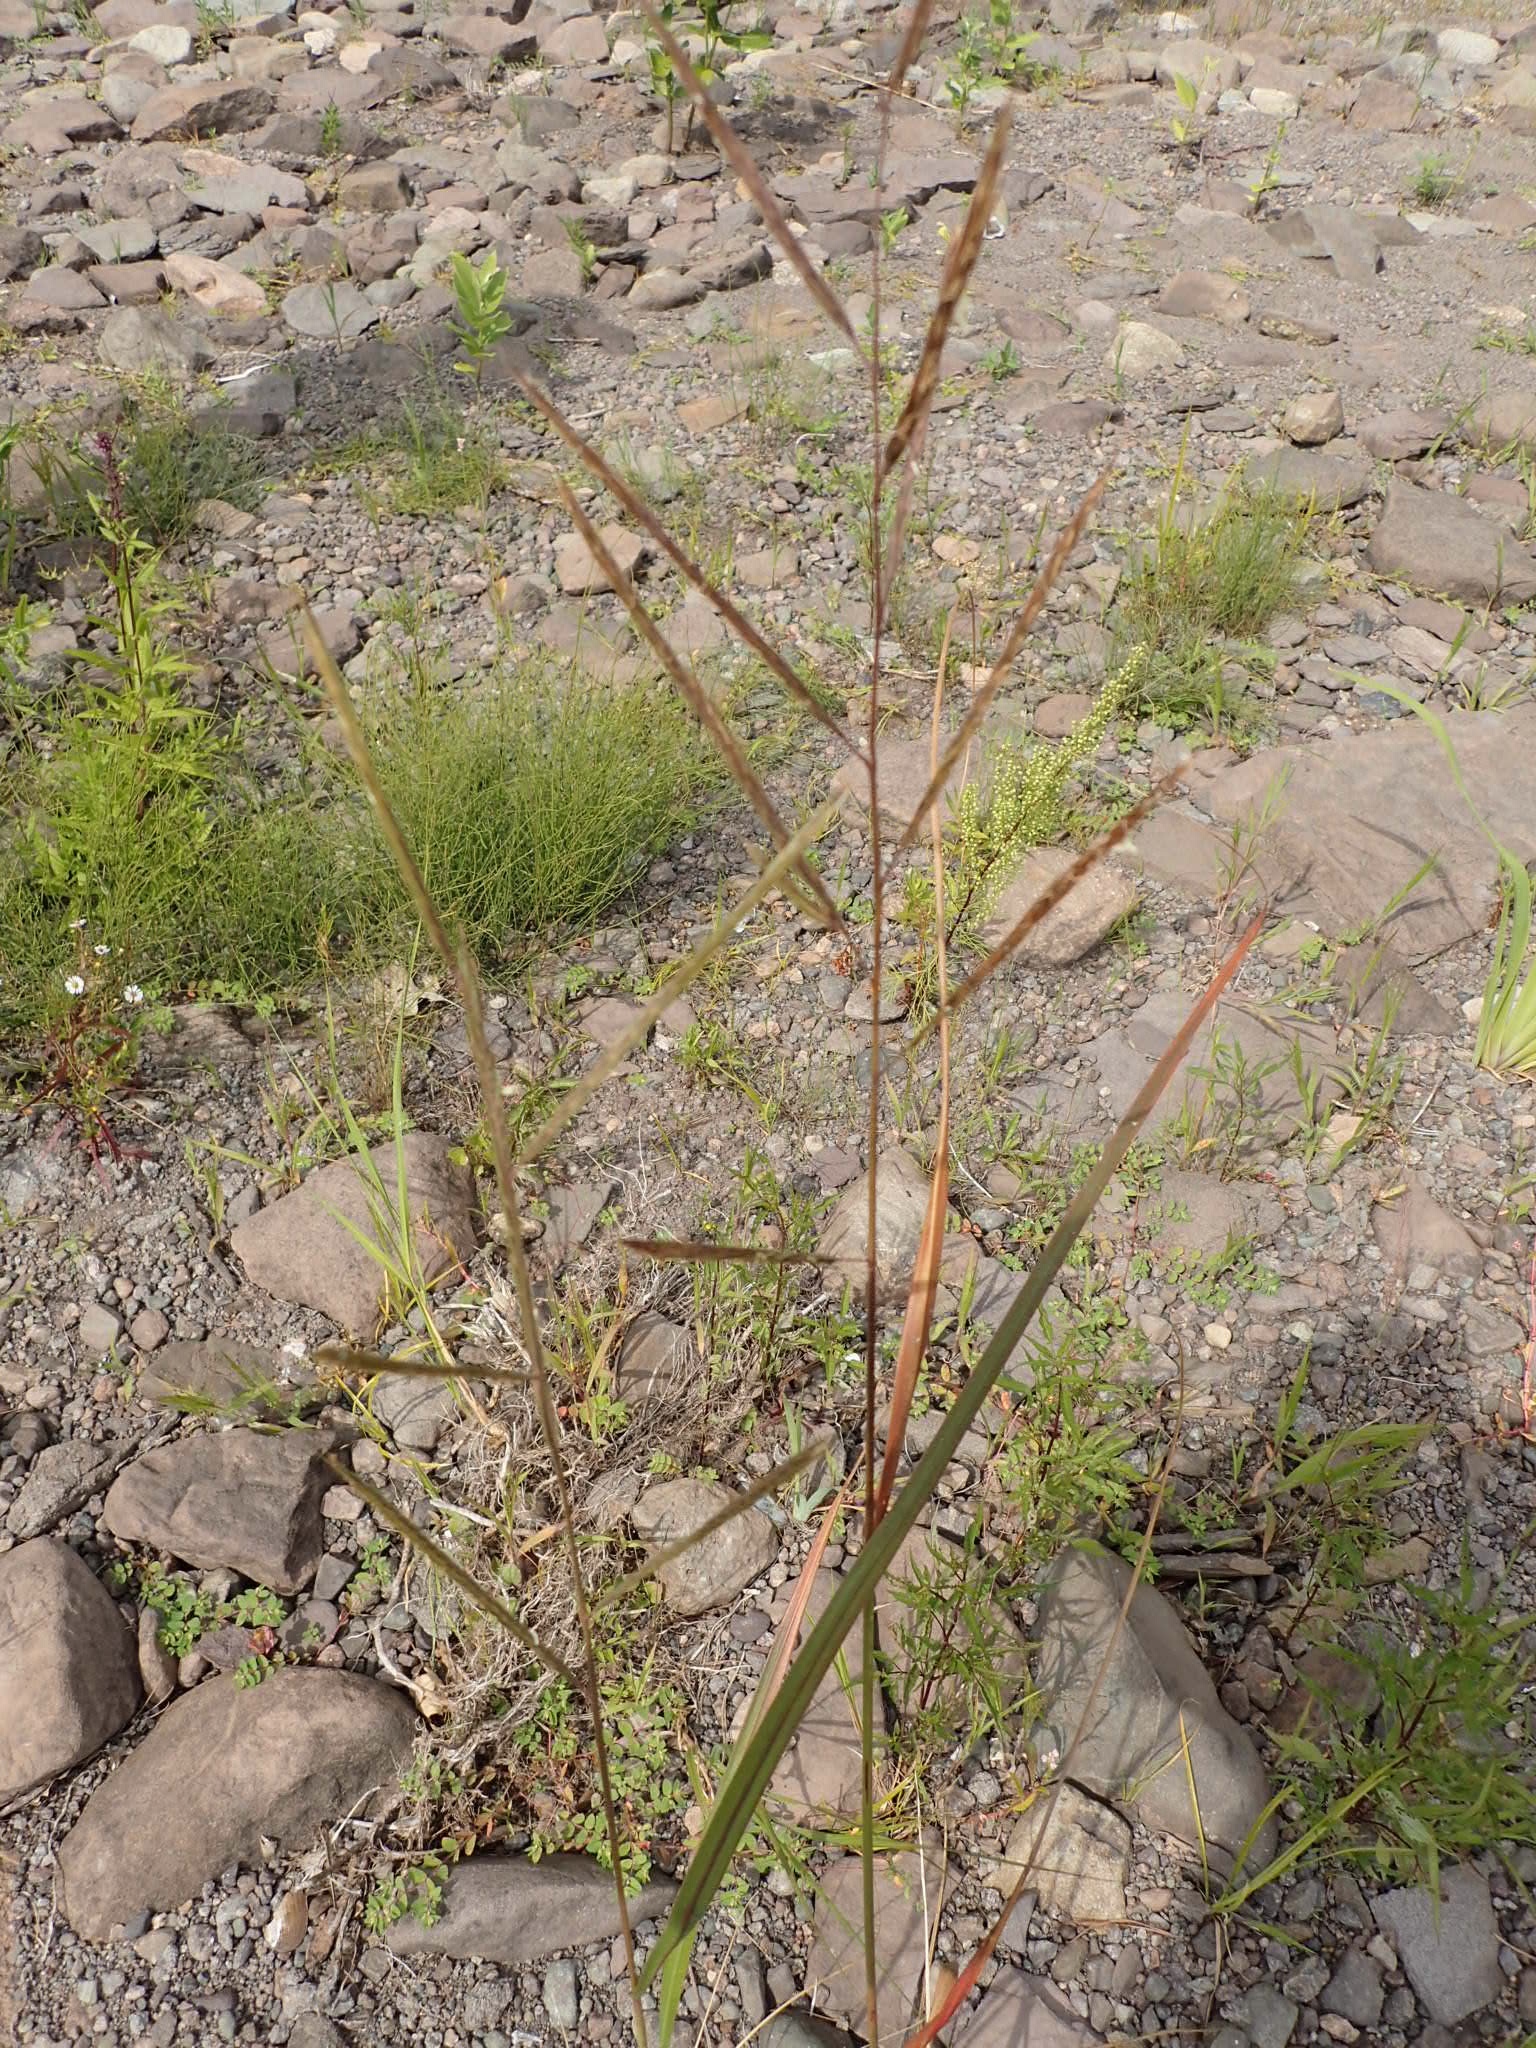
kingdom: Plantae
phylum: Tracheophyta
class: Liliopsida
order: Poales
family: Poaceae
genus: Sporobolus
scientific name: Sporobolus michauxianus
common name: Freshwater cordgrass
